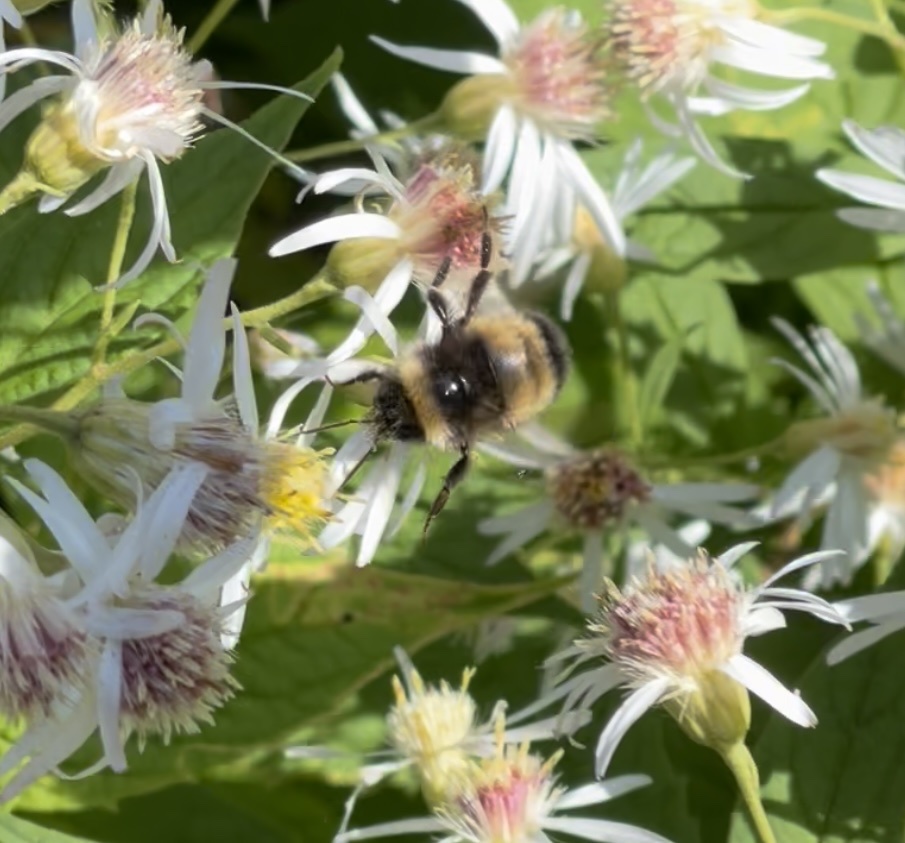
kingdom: Animalia
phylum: Arthropoda
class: Insecta
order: Hymenoptera
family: Apidae
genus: Bombus
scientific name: Bombus terricola
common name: Yellow-banded bumble bee
